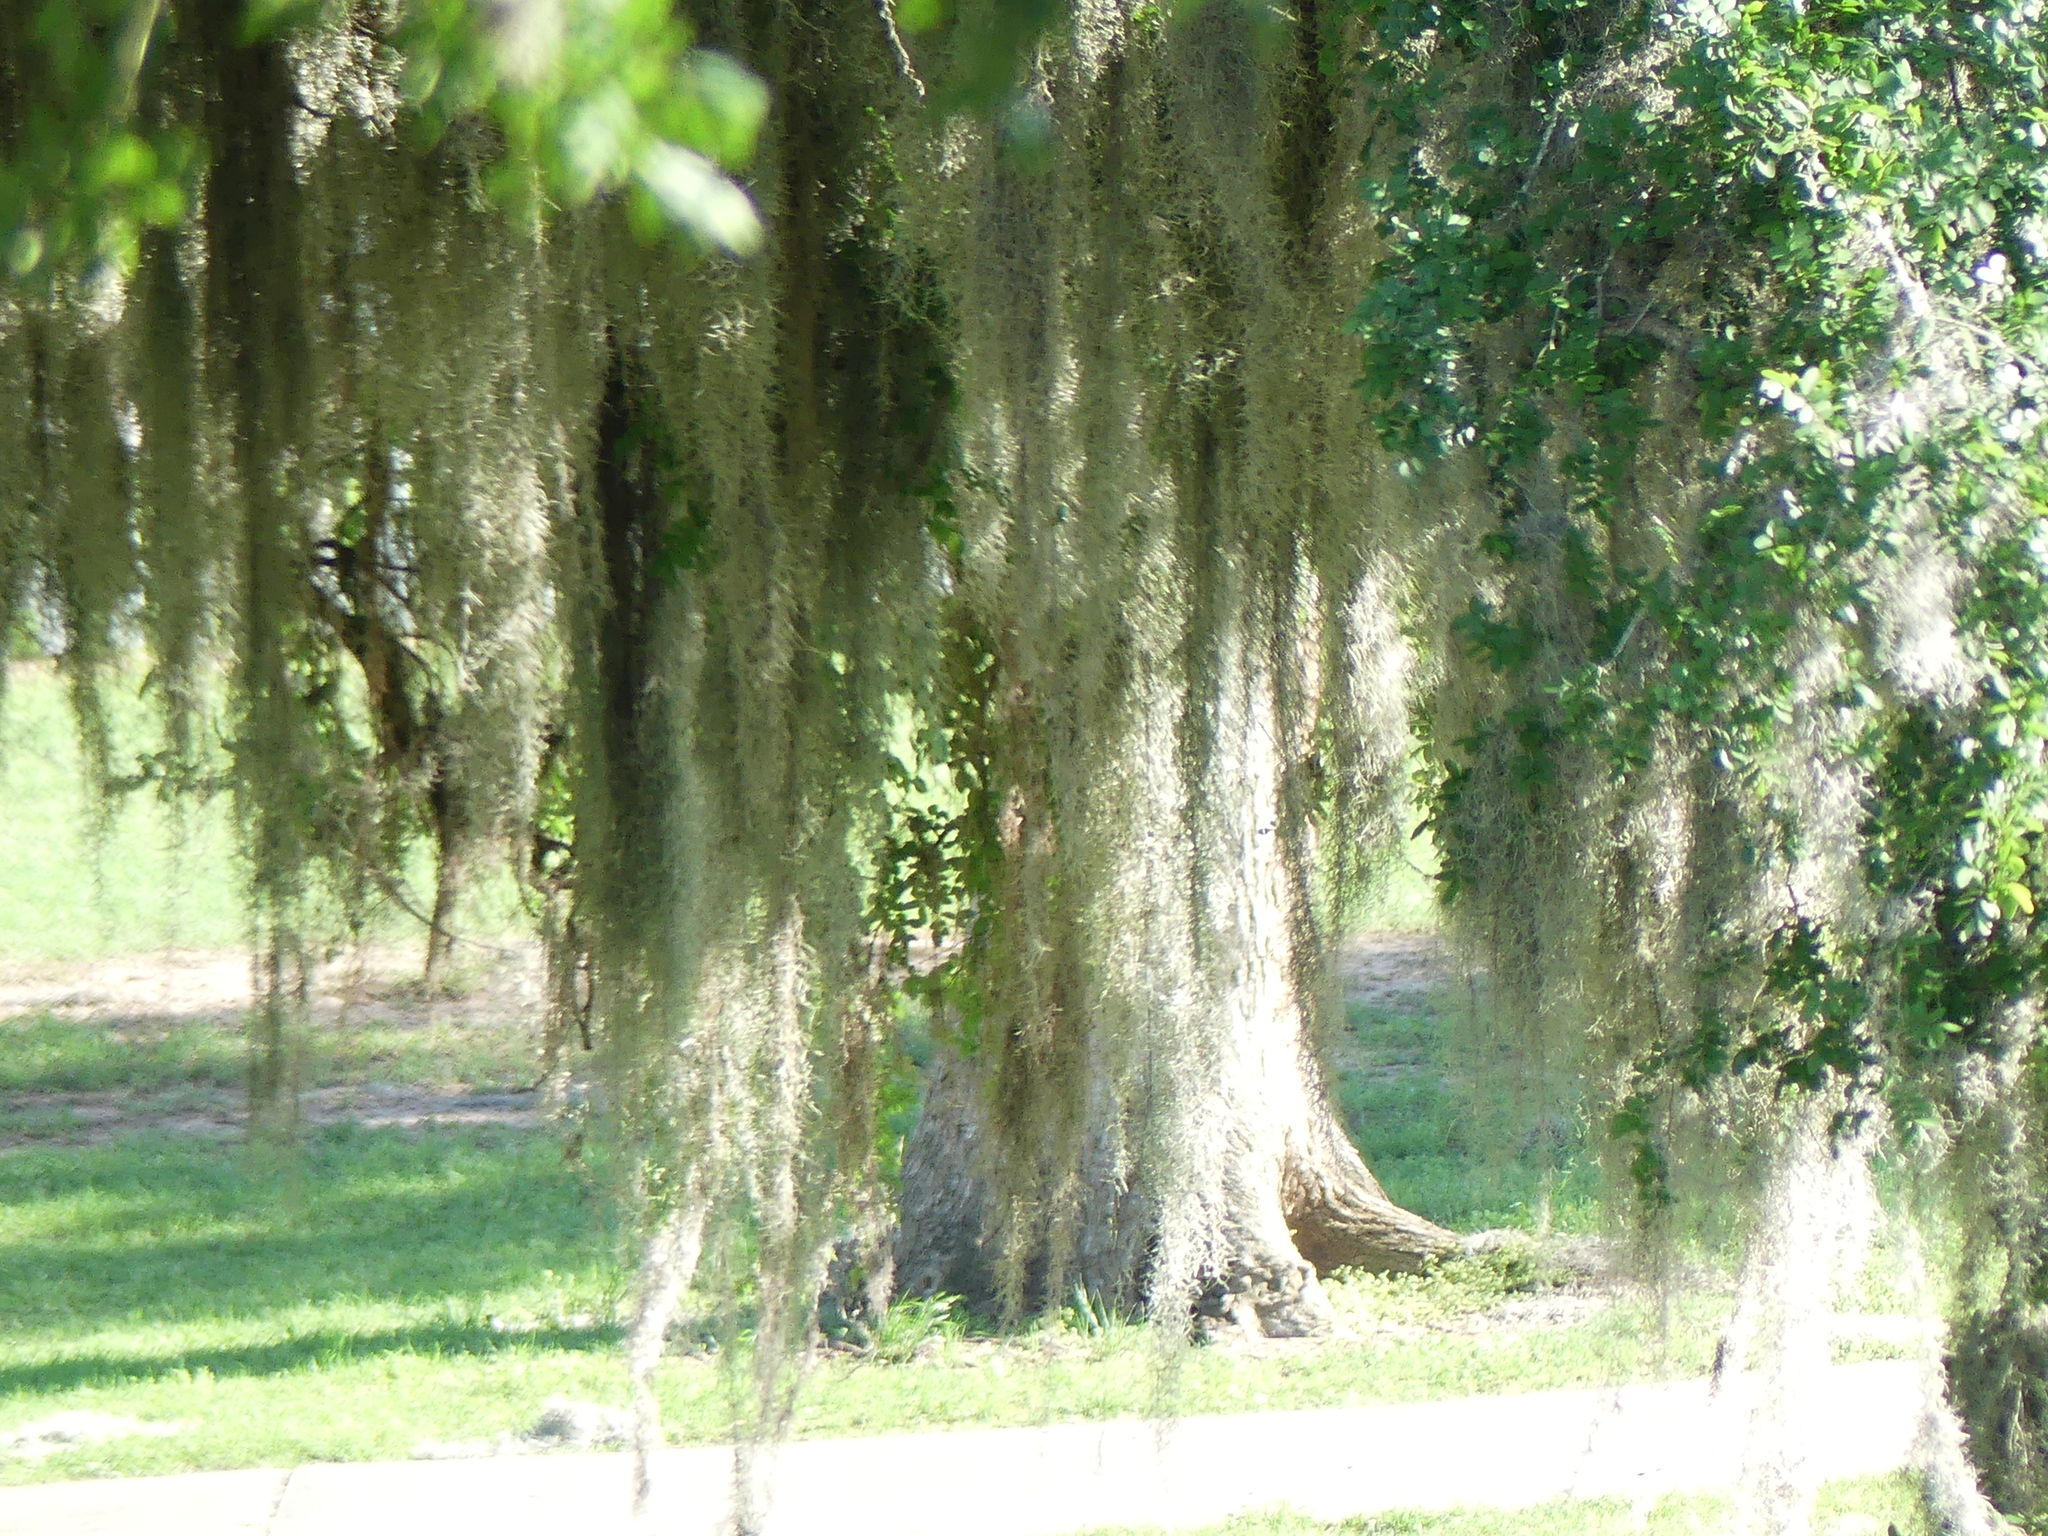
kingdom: Plantae
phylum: Tracheophyta
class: Liliopsida
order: Poales
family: Bromeliaceae
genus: Tillandsia
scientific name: Tillandsia usneoides
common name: Spanish moss
